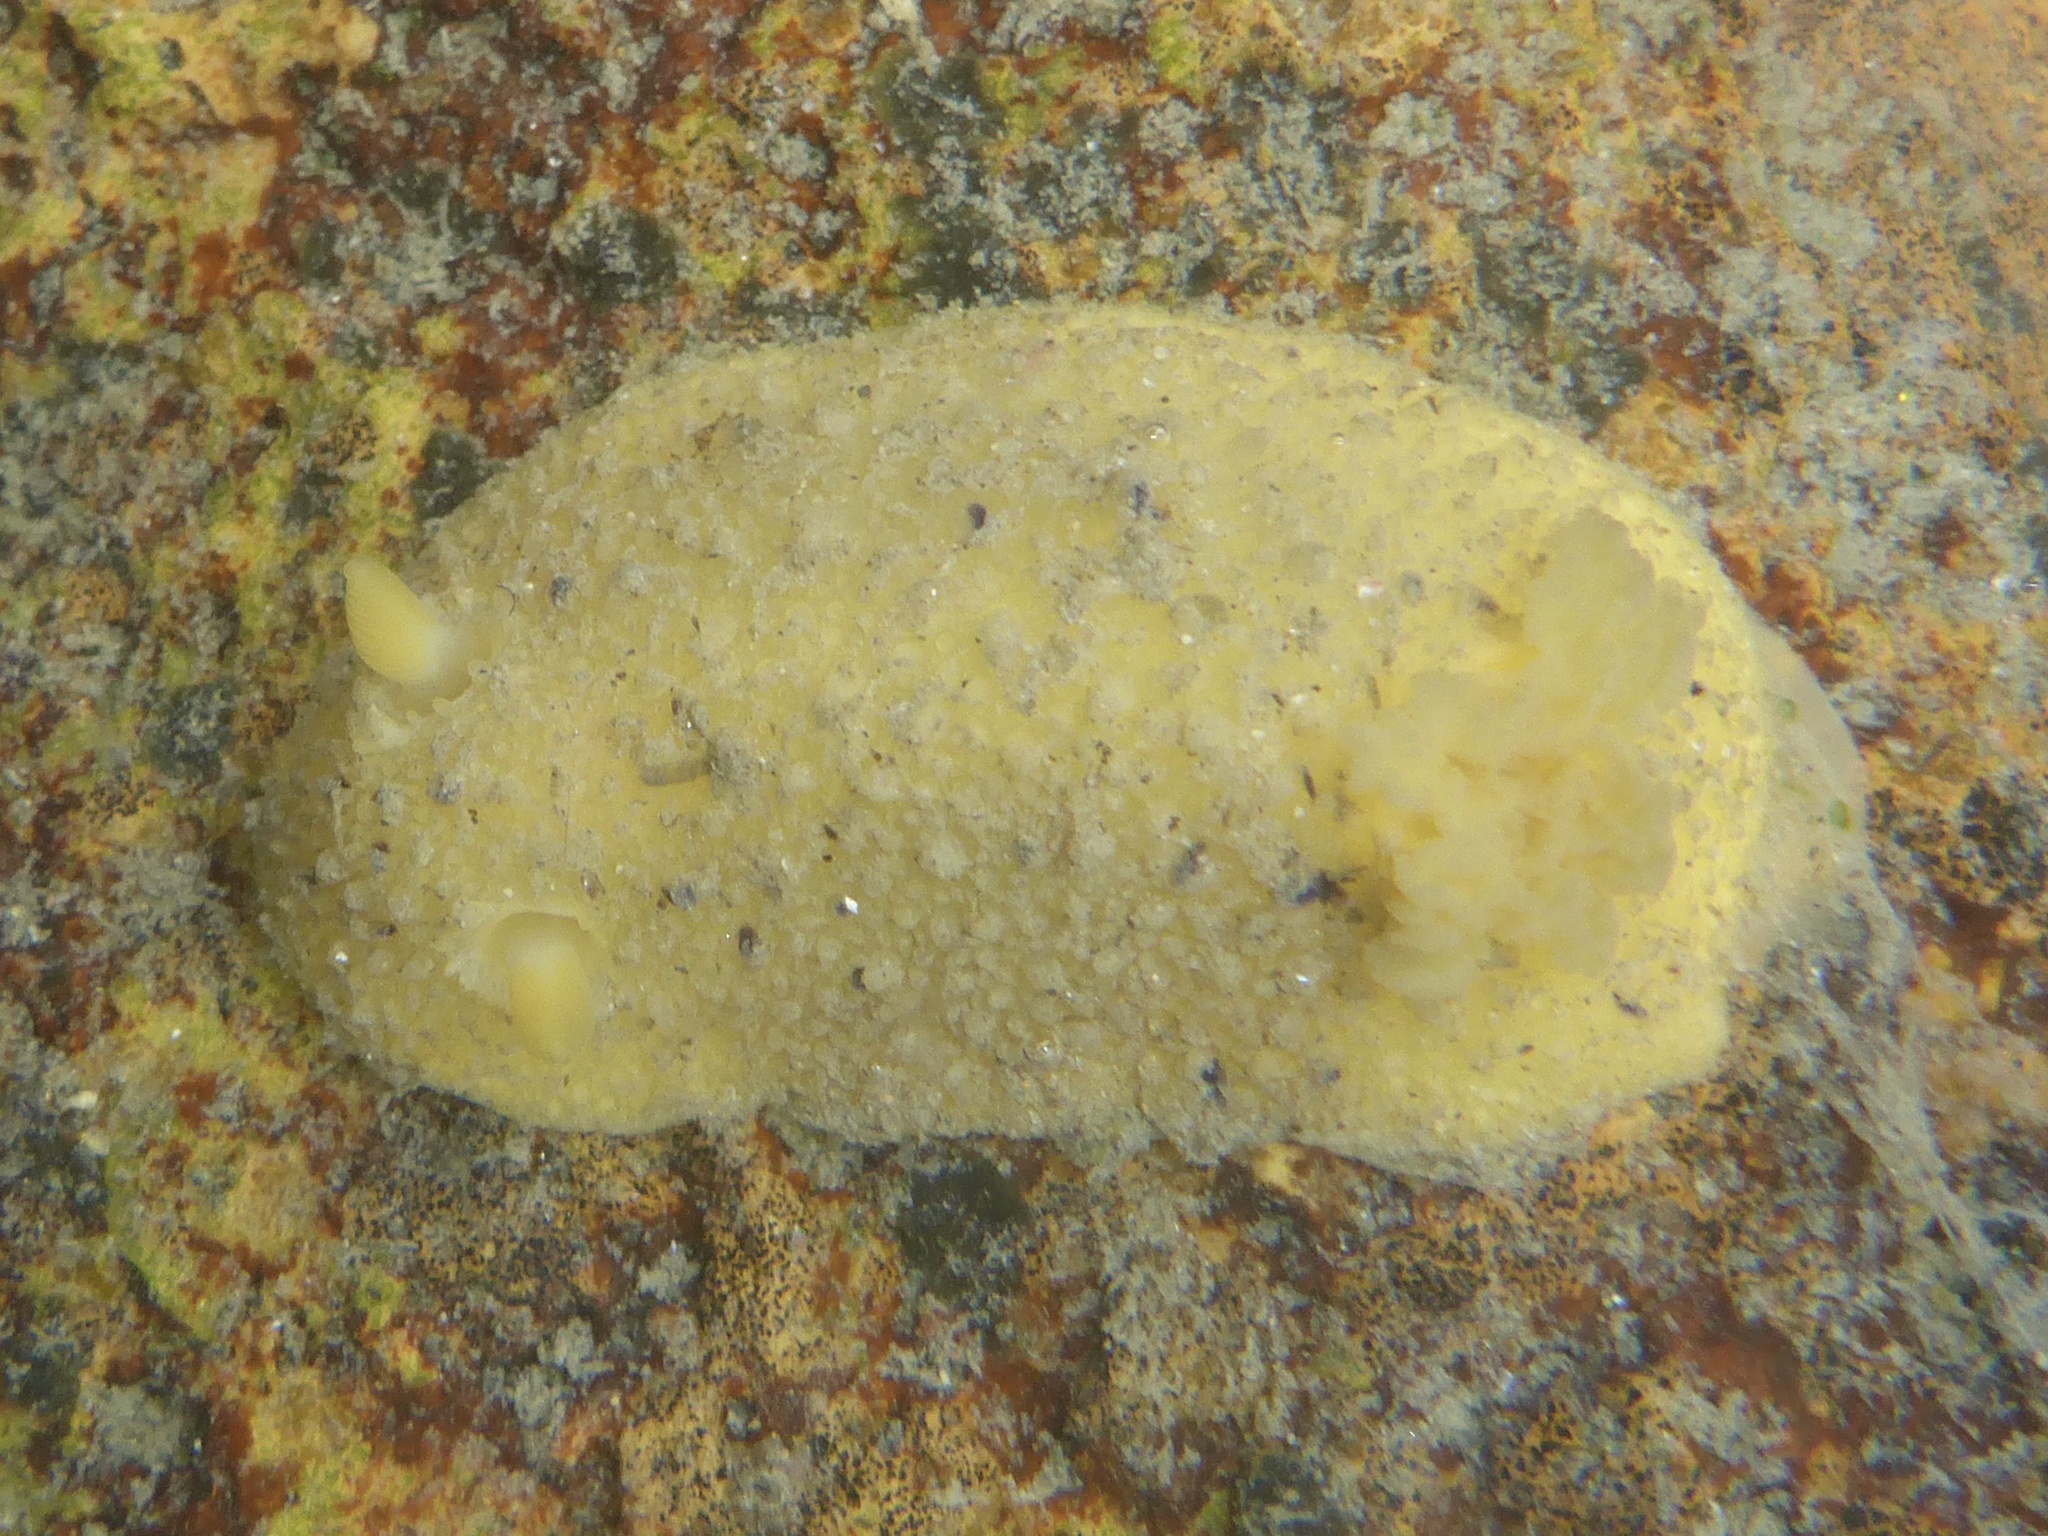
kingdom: Animalia
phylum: Mollusca
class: Gastropoda
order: Nudibranchia
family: Dorididae
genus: Doris
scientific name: Doris montereyensis
